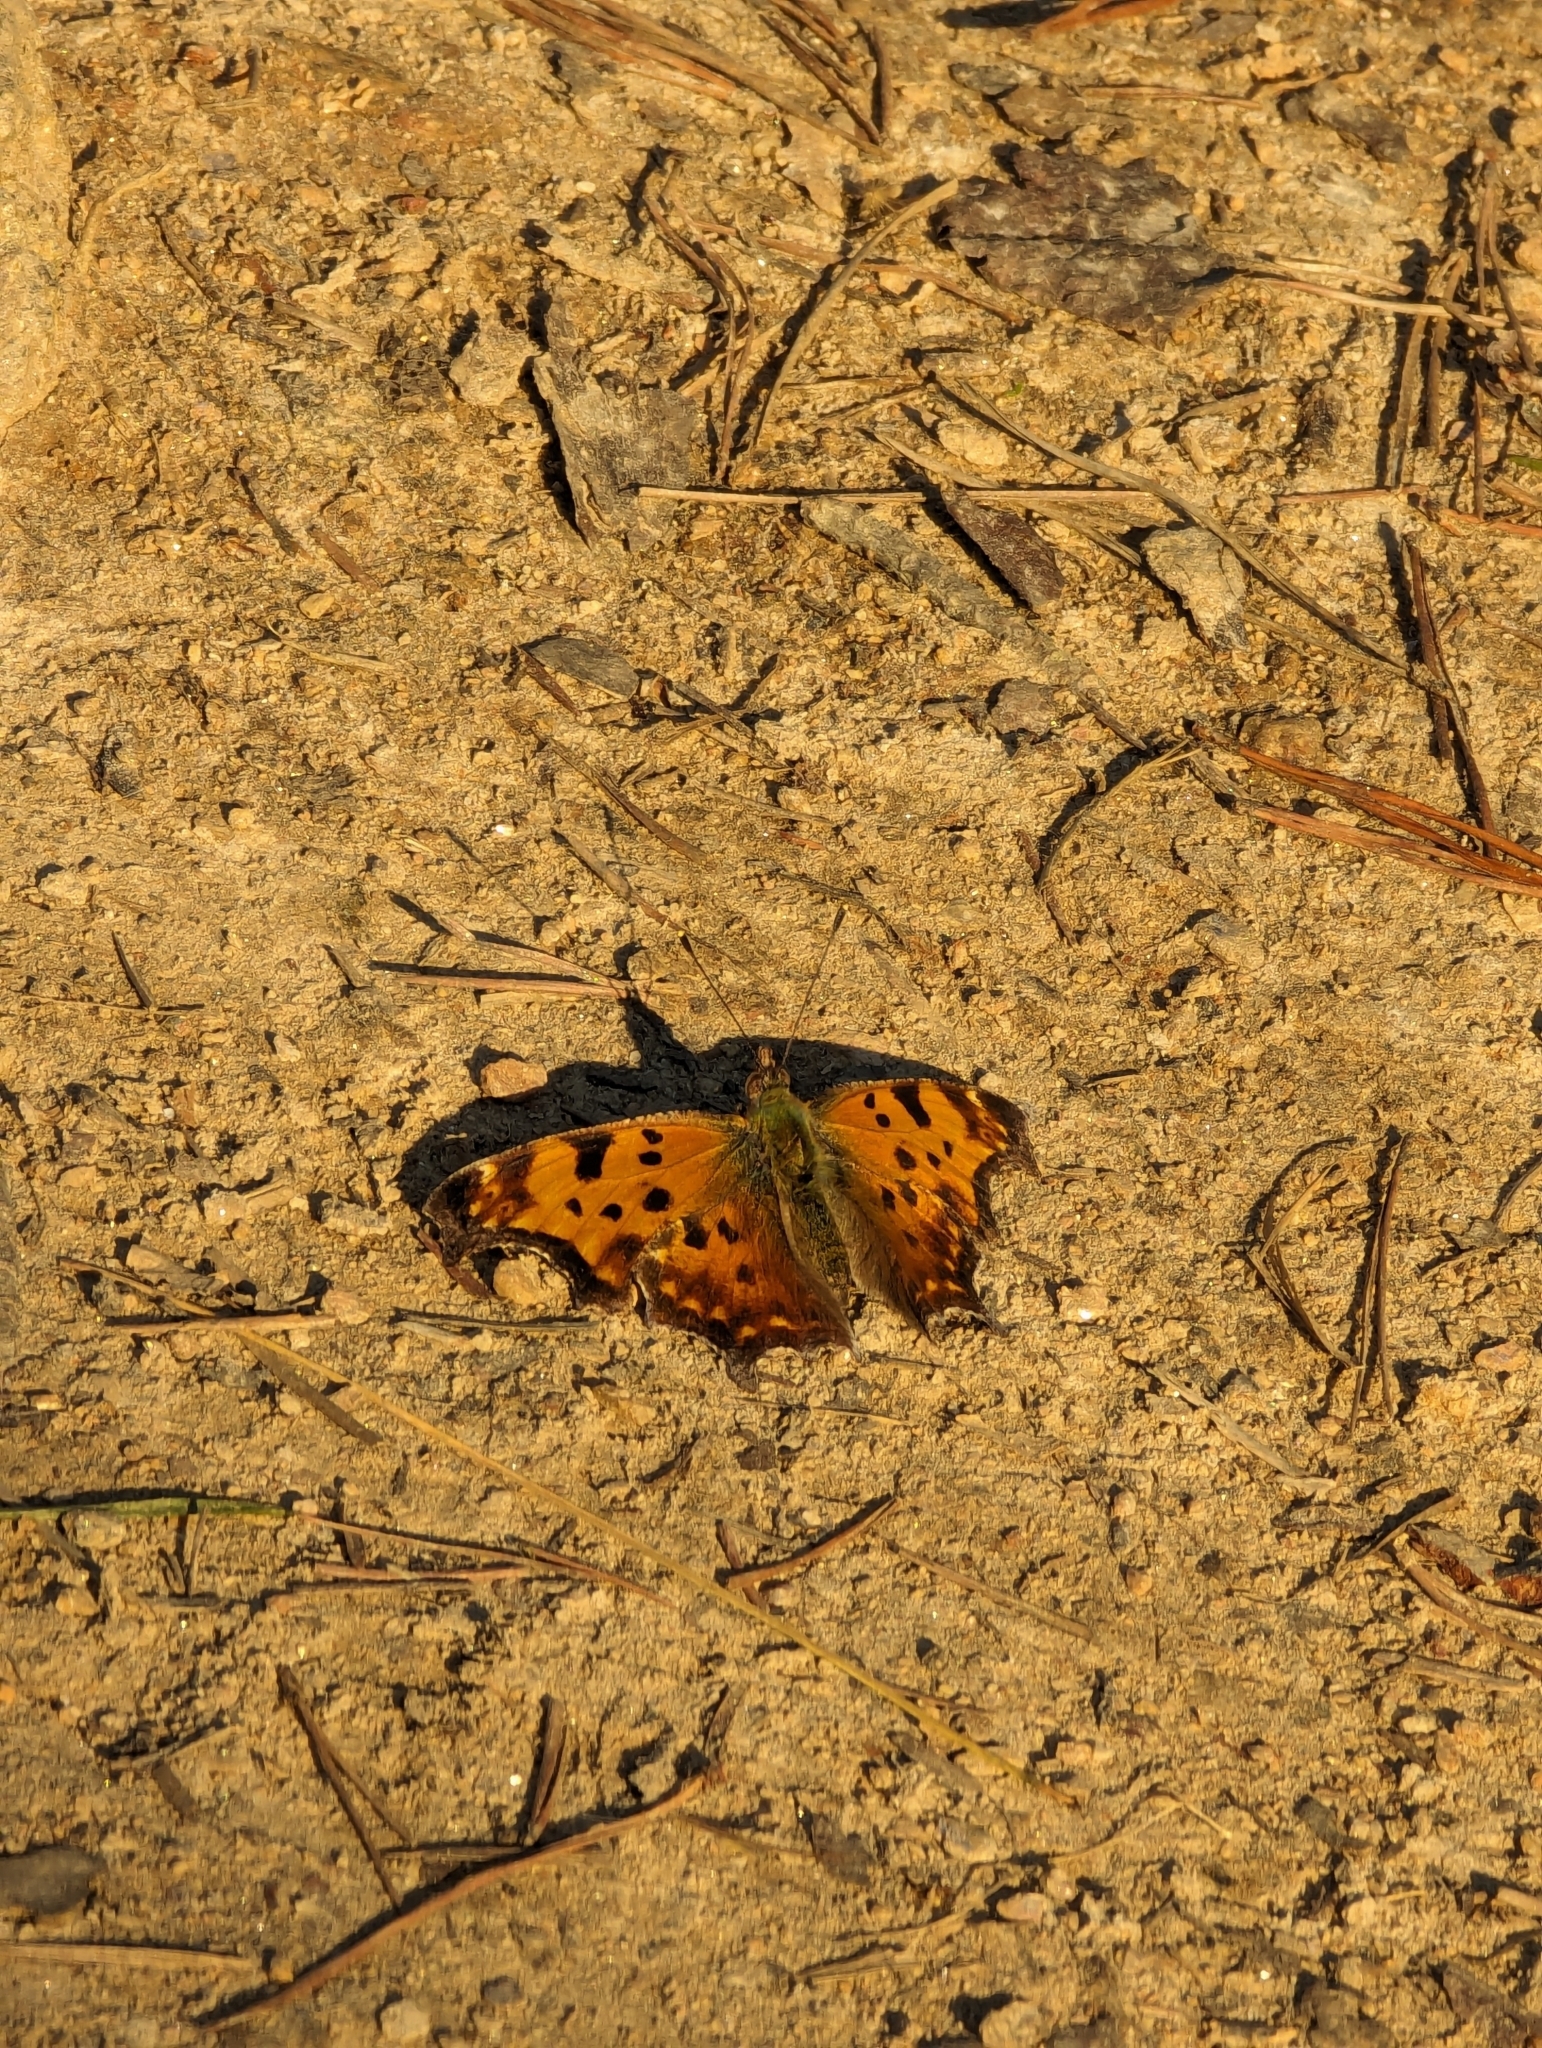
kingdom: Animalia
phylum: Arthropoda
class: Insecta
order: Lepidoptera
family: Nymphalidae
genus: Polygonia
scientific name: Polygonia comma
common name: Eastern comma
